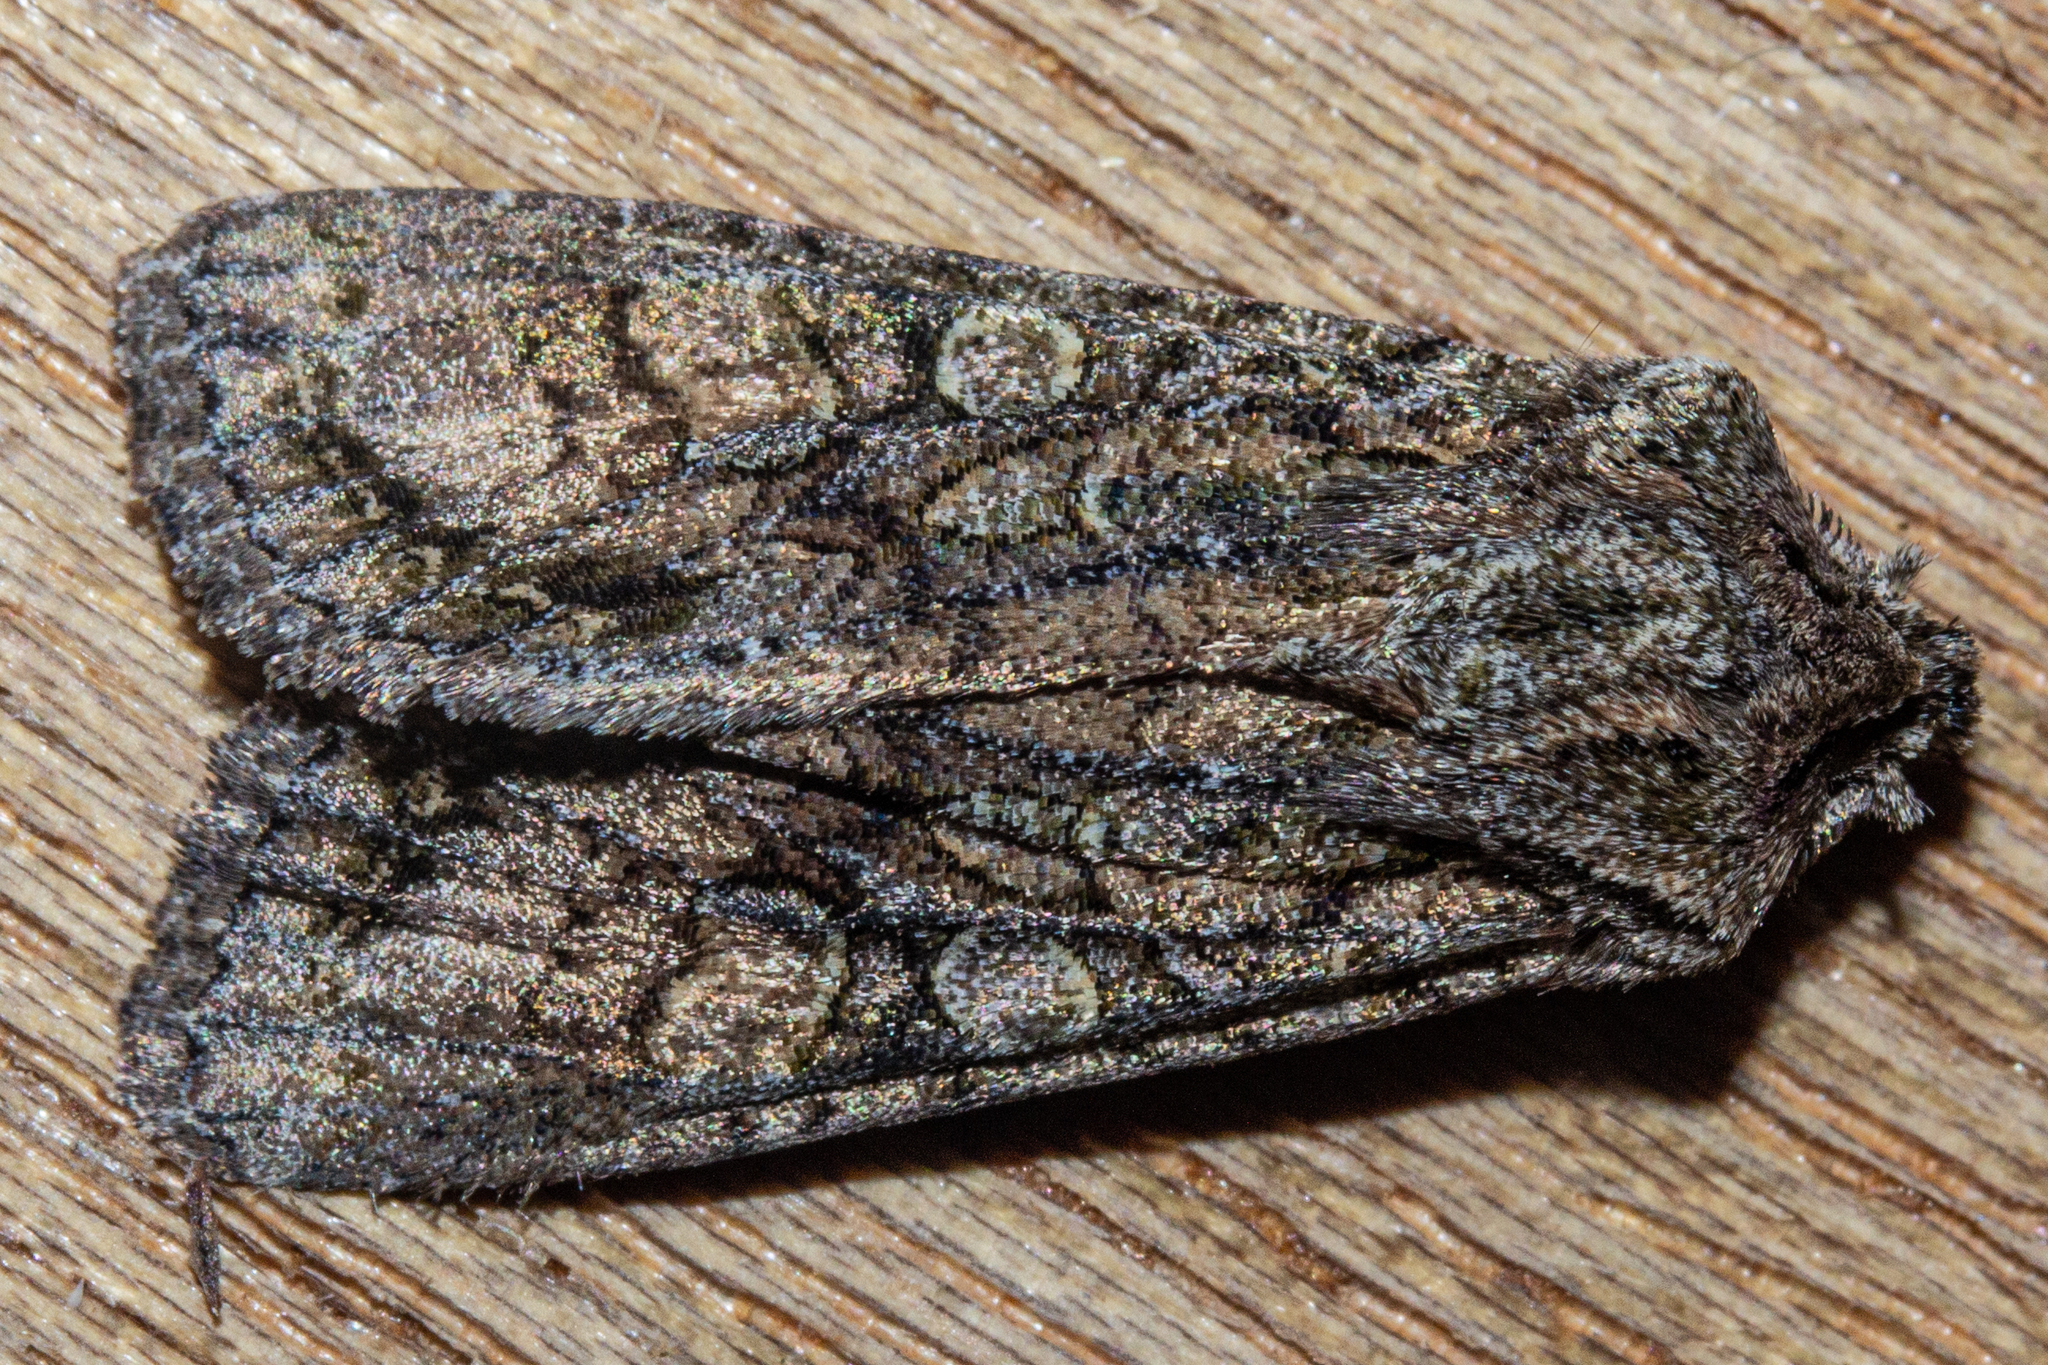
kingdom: Animalia
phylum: Arthropoda
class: Insecta
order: Lepidoptera
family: Noctuidae
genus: Ichneutica
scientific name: Ichneutica mutans
